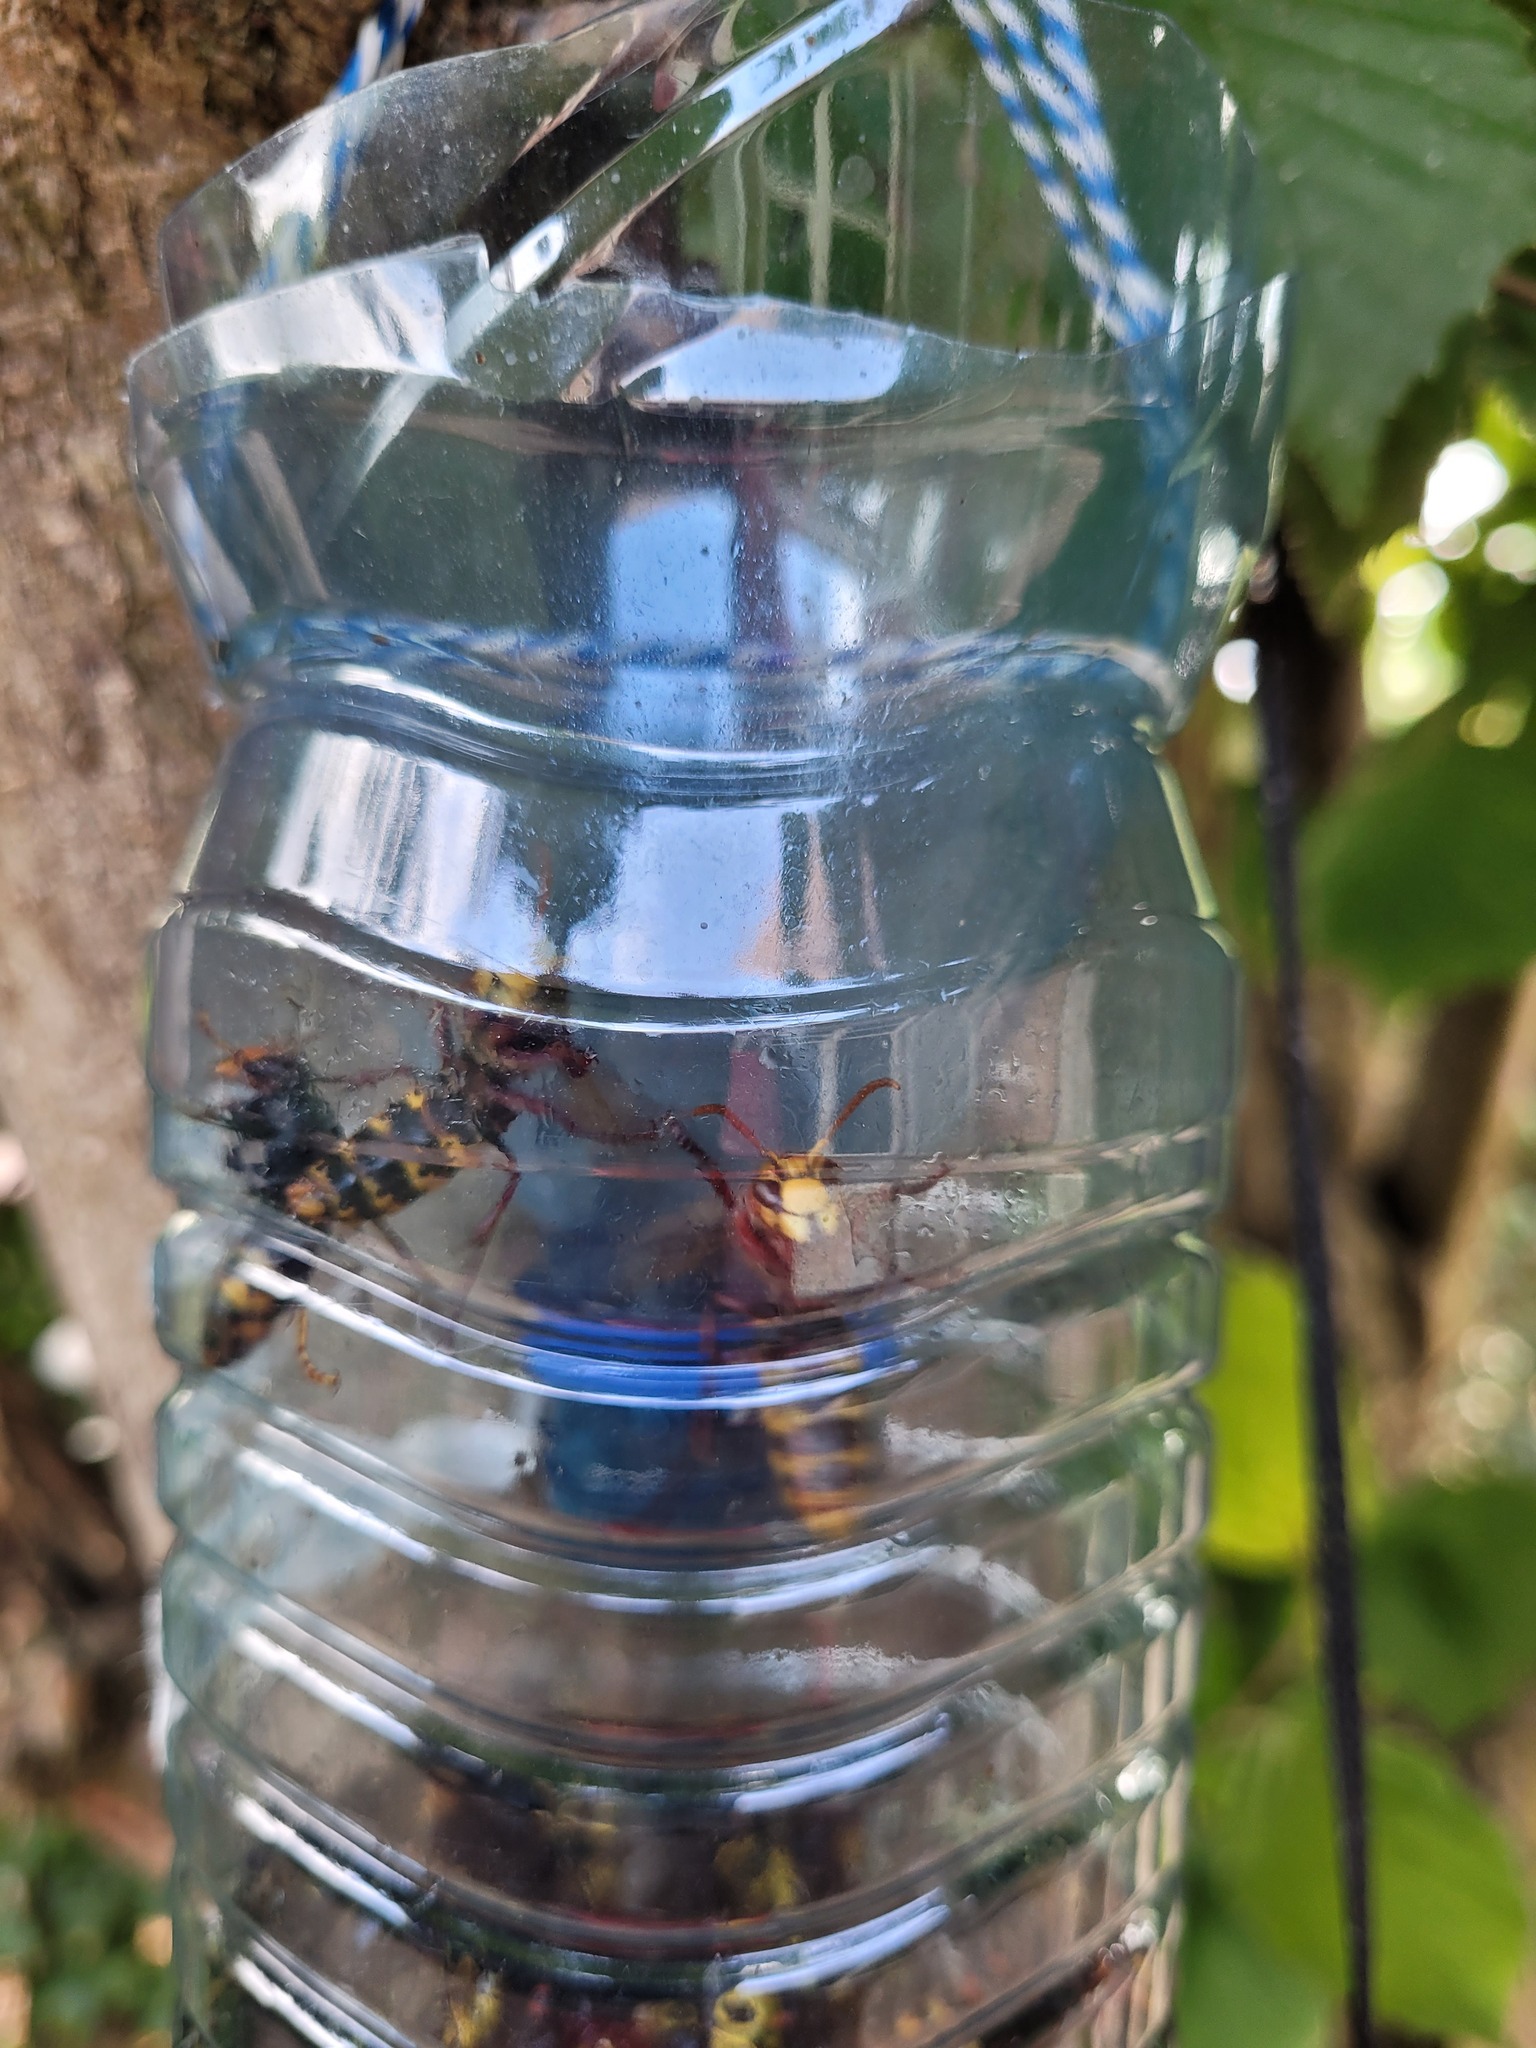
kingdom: Animalia
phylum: Arthropoda
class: Insecta
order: Hymenoptera
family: Vespidae
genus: Vespa
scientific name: Vespa velutina
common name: Asian hornet
